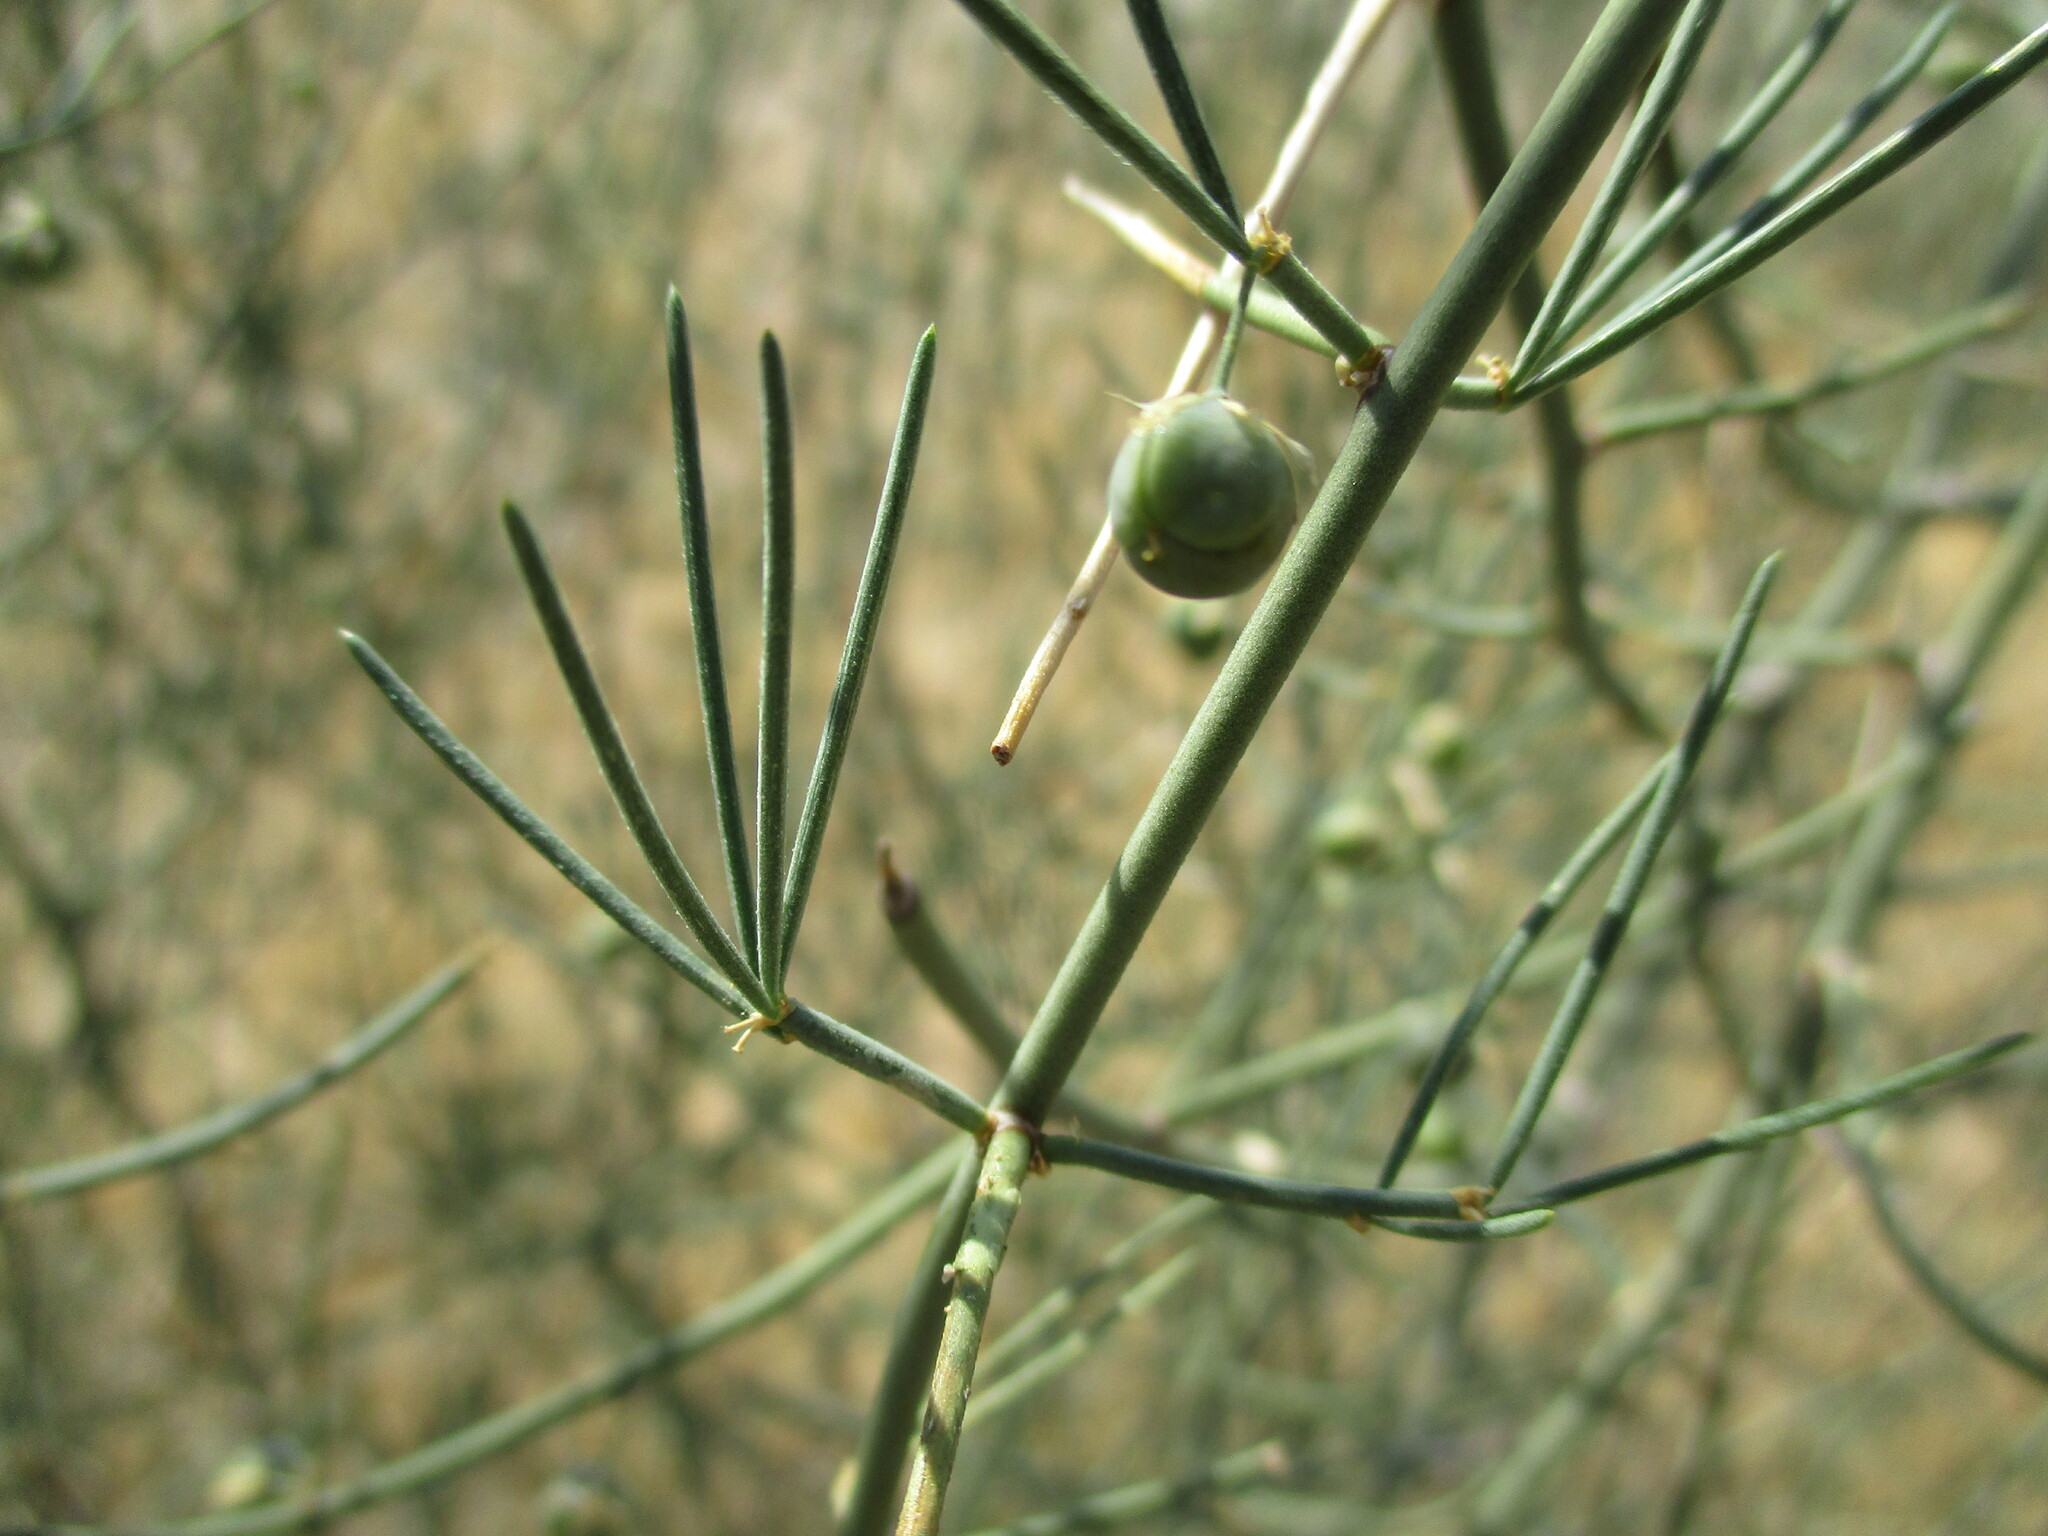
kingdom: Plantae
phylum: Tracheophyta
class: Liliopsida
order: Asparagales
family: Asparagaceae
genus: Asparagus
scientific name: Asparagus pearsonii
